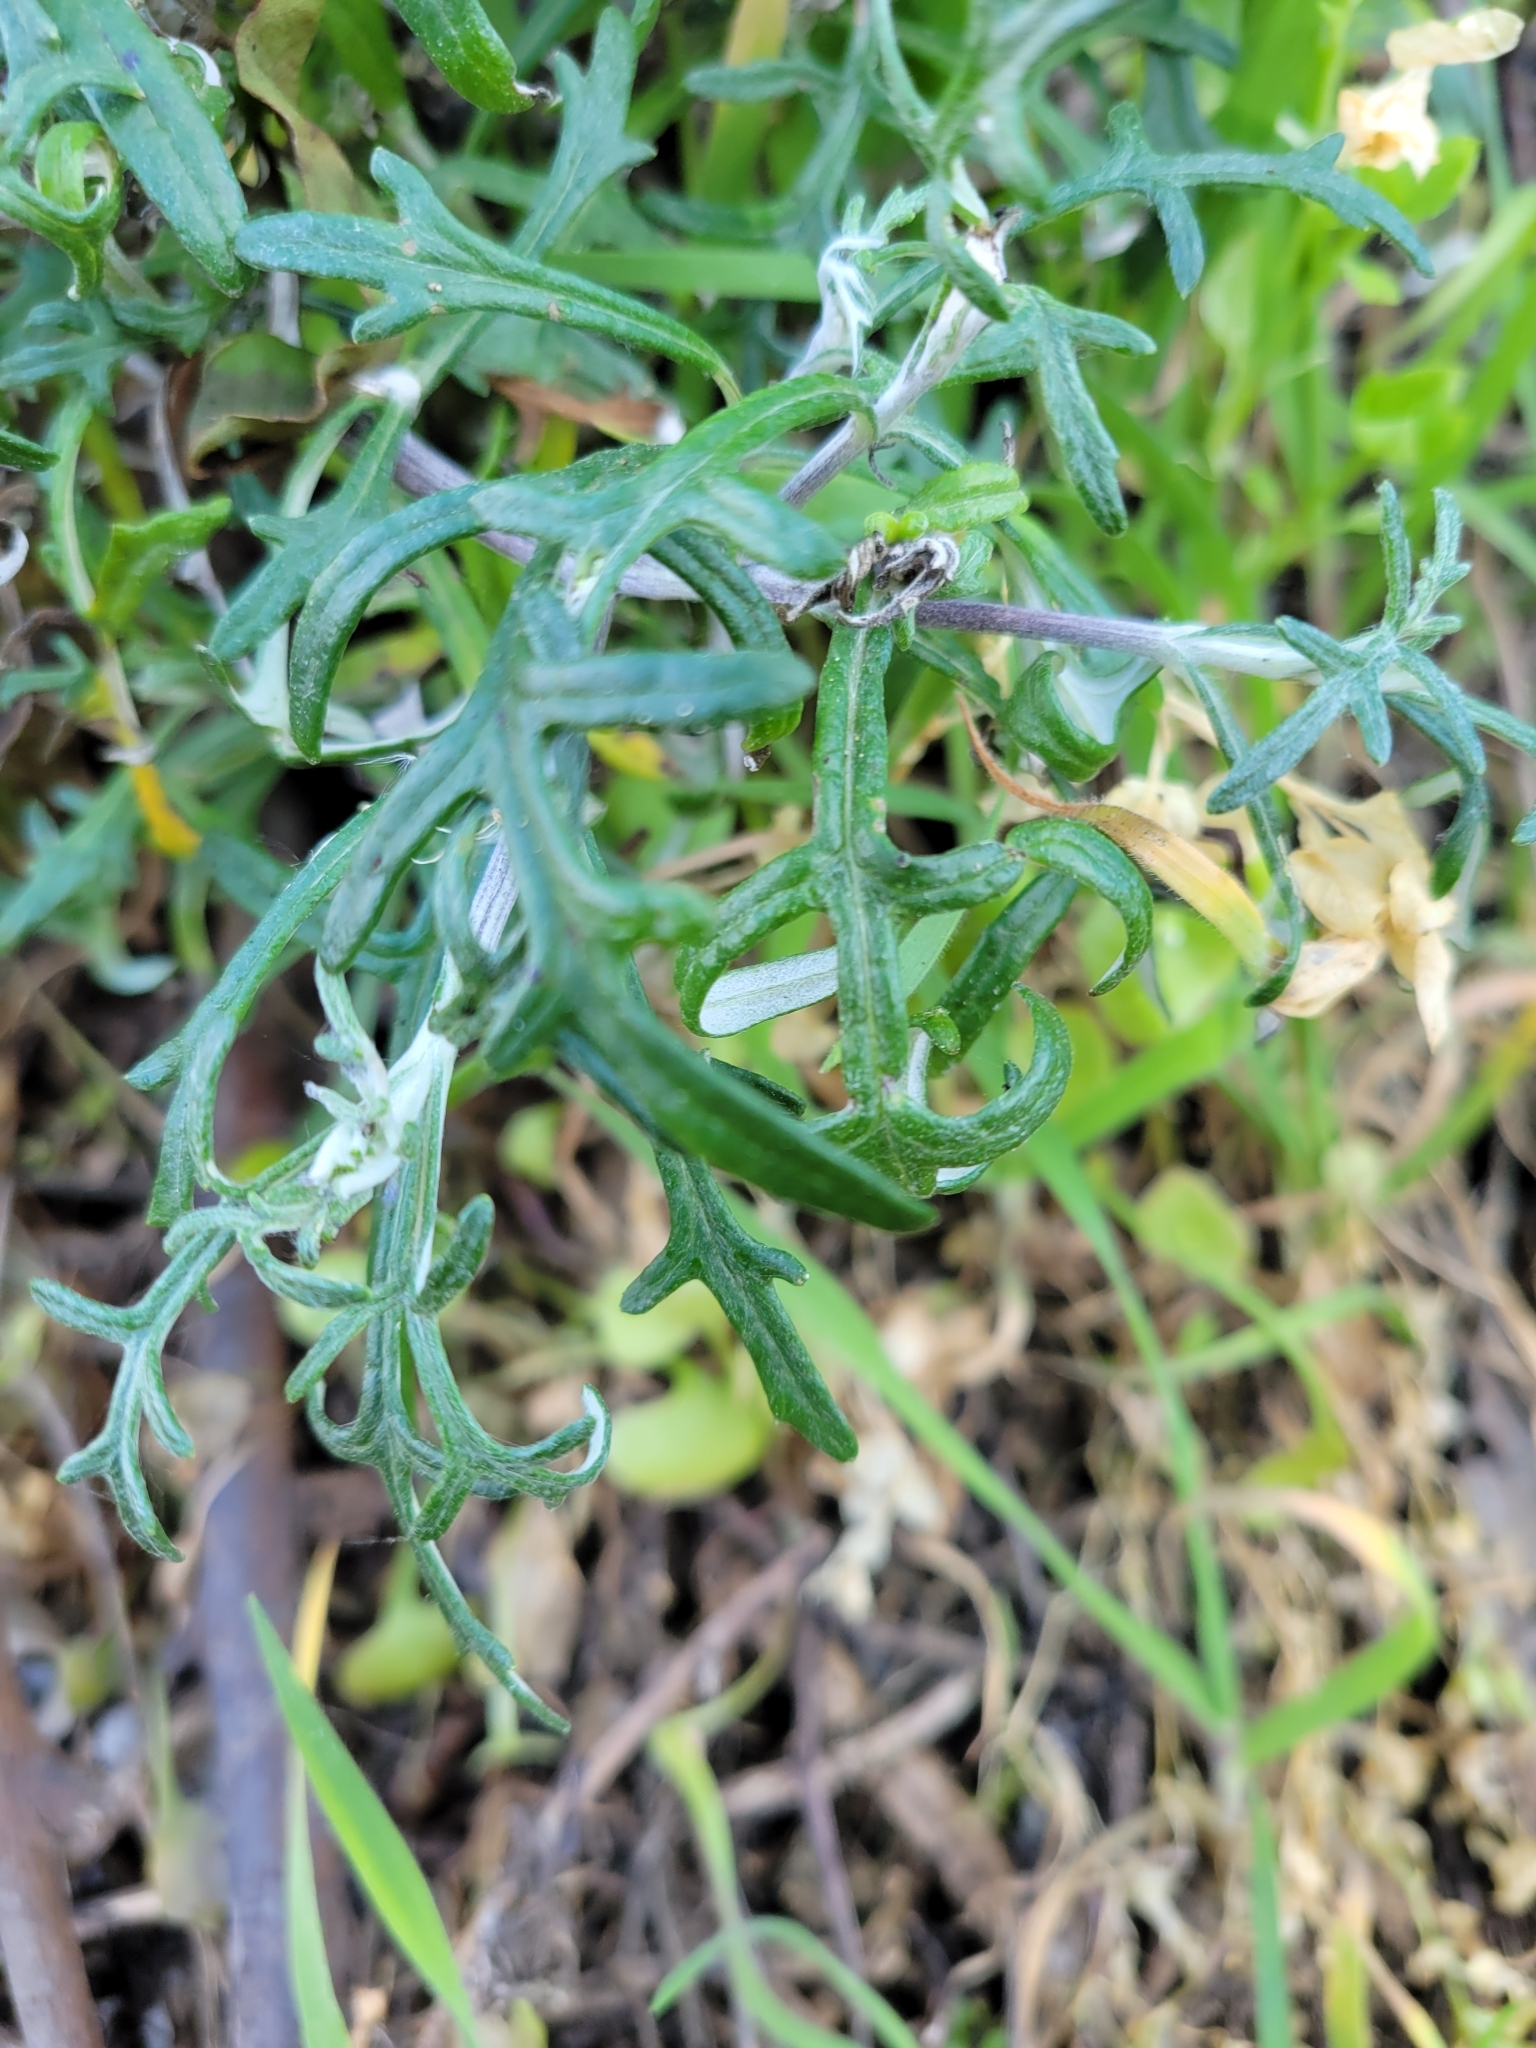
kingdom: Plantae
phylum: Tracheophyta
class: Magnoliopsida
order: Asterales
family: Asteraceae
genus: Eriophyllum
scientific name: Eriophyllum staechadifolium
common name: Lizardtail
